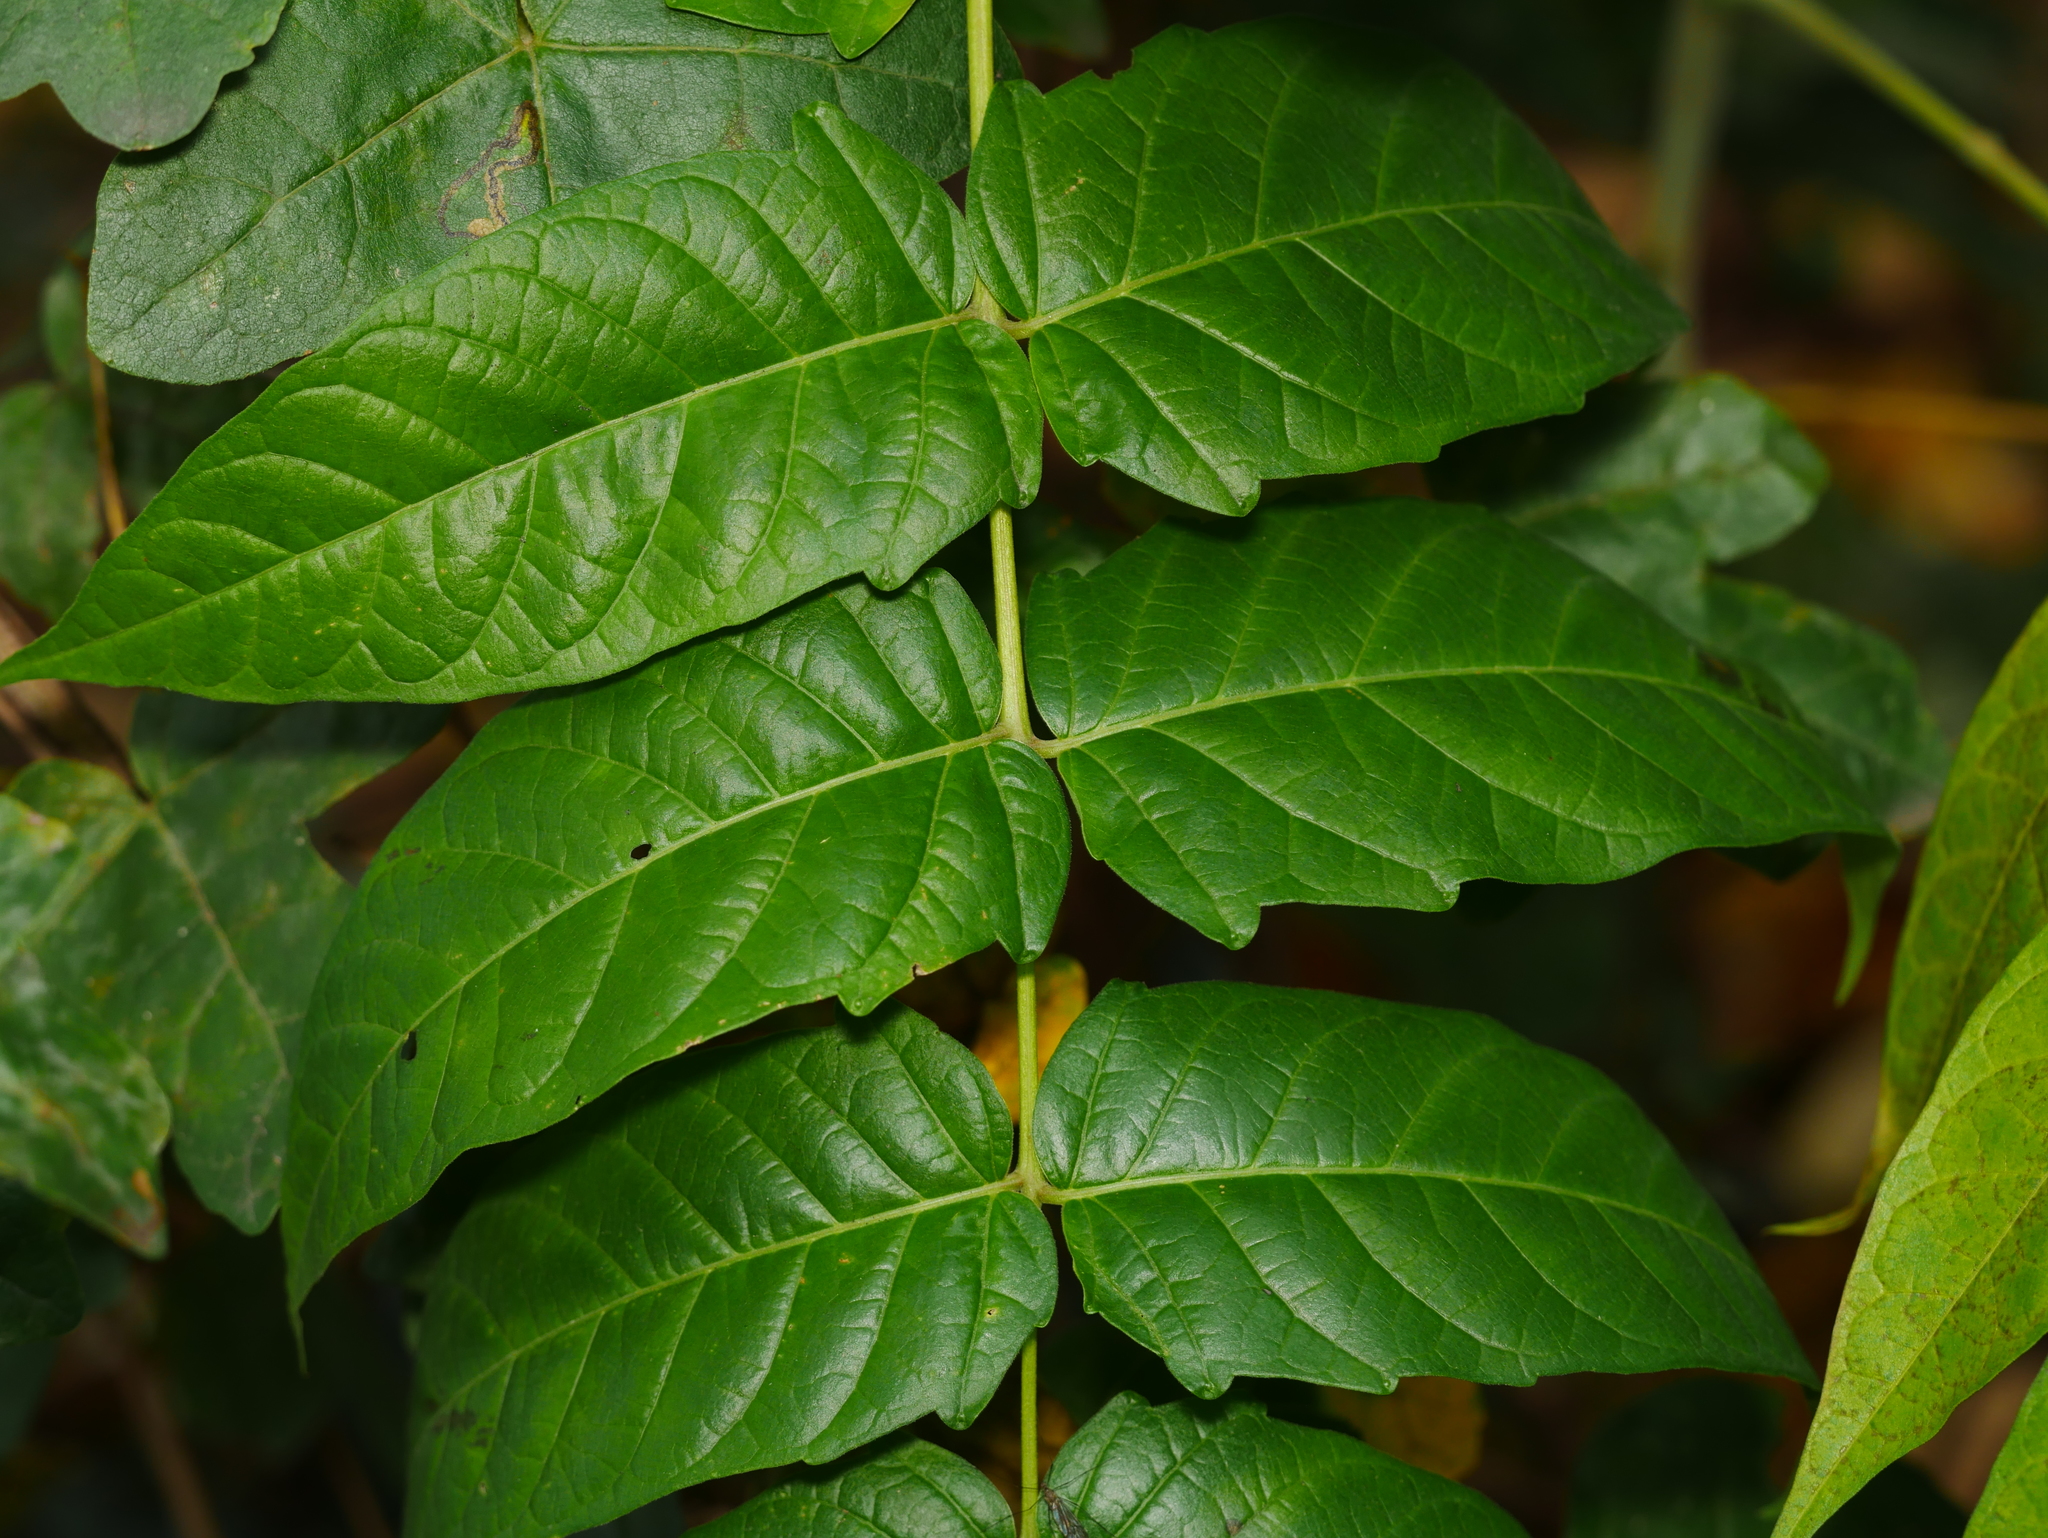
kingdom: Plantae
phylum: Tracheophyta
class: Magnoliopsida
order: Sapindales
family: Simaroubaceae
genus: Ailanthus
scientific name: Ailanthus altissima
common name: Tree-of-heaven
